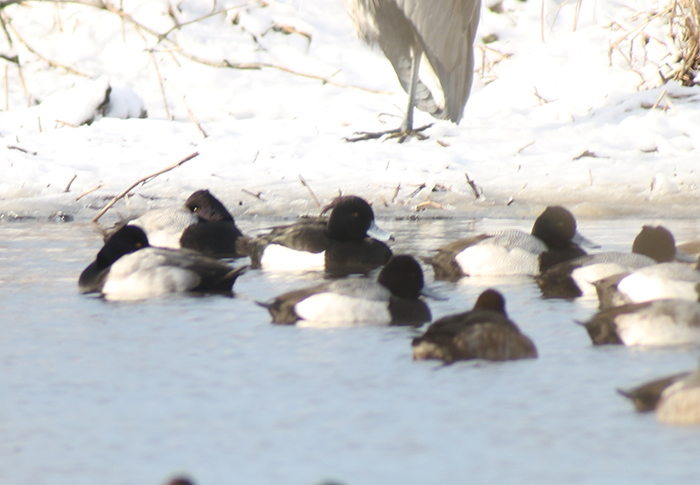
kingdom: Animalia
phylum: Chordata
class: Aves
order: Anseriformes
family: Anatidae
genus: Aythya
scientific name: Aythya fuligula
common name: Tufted duck
